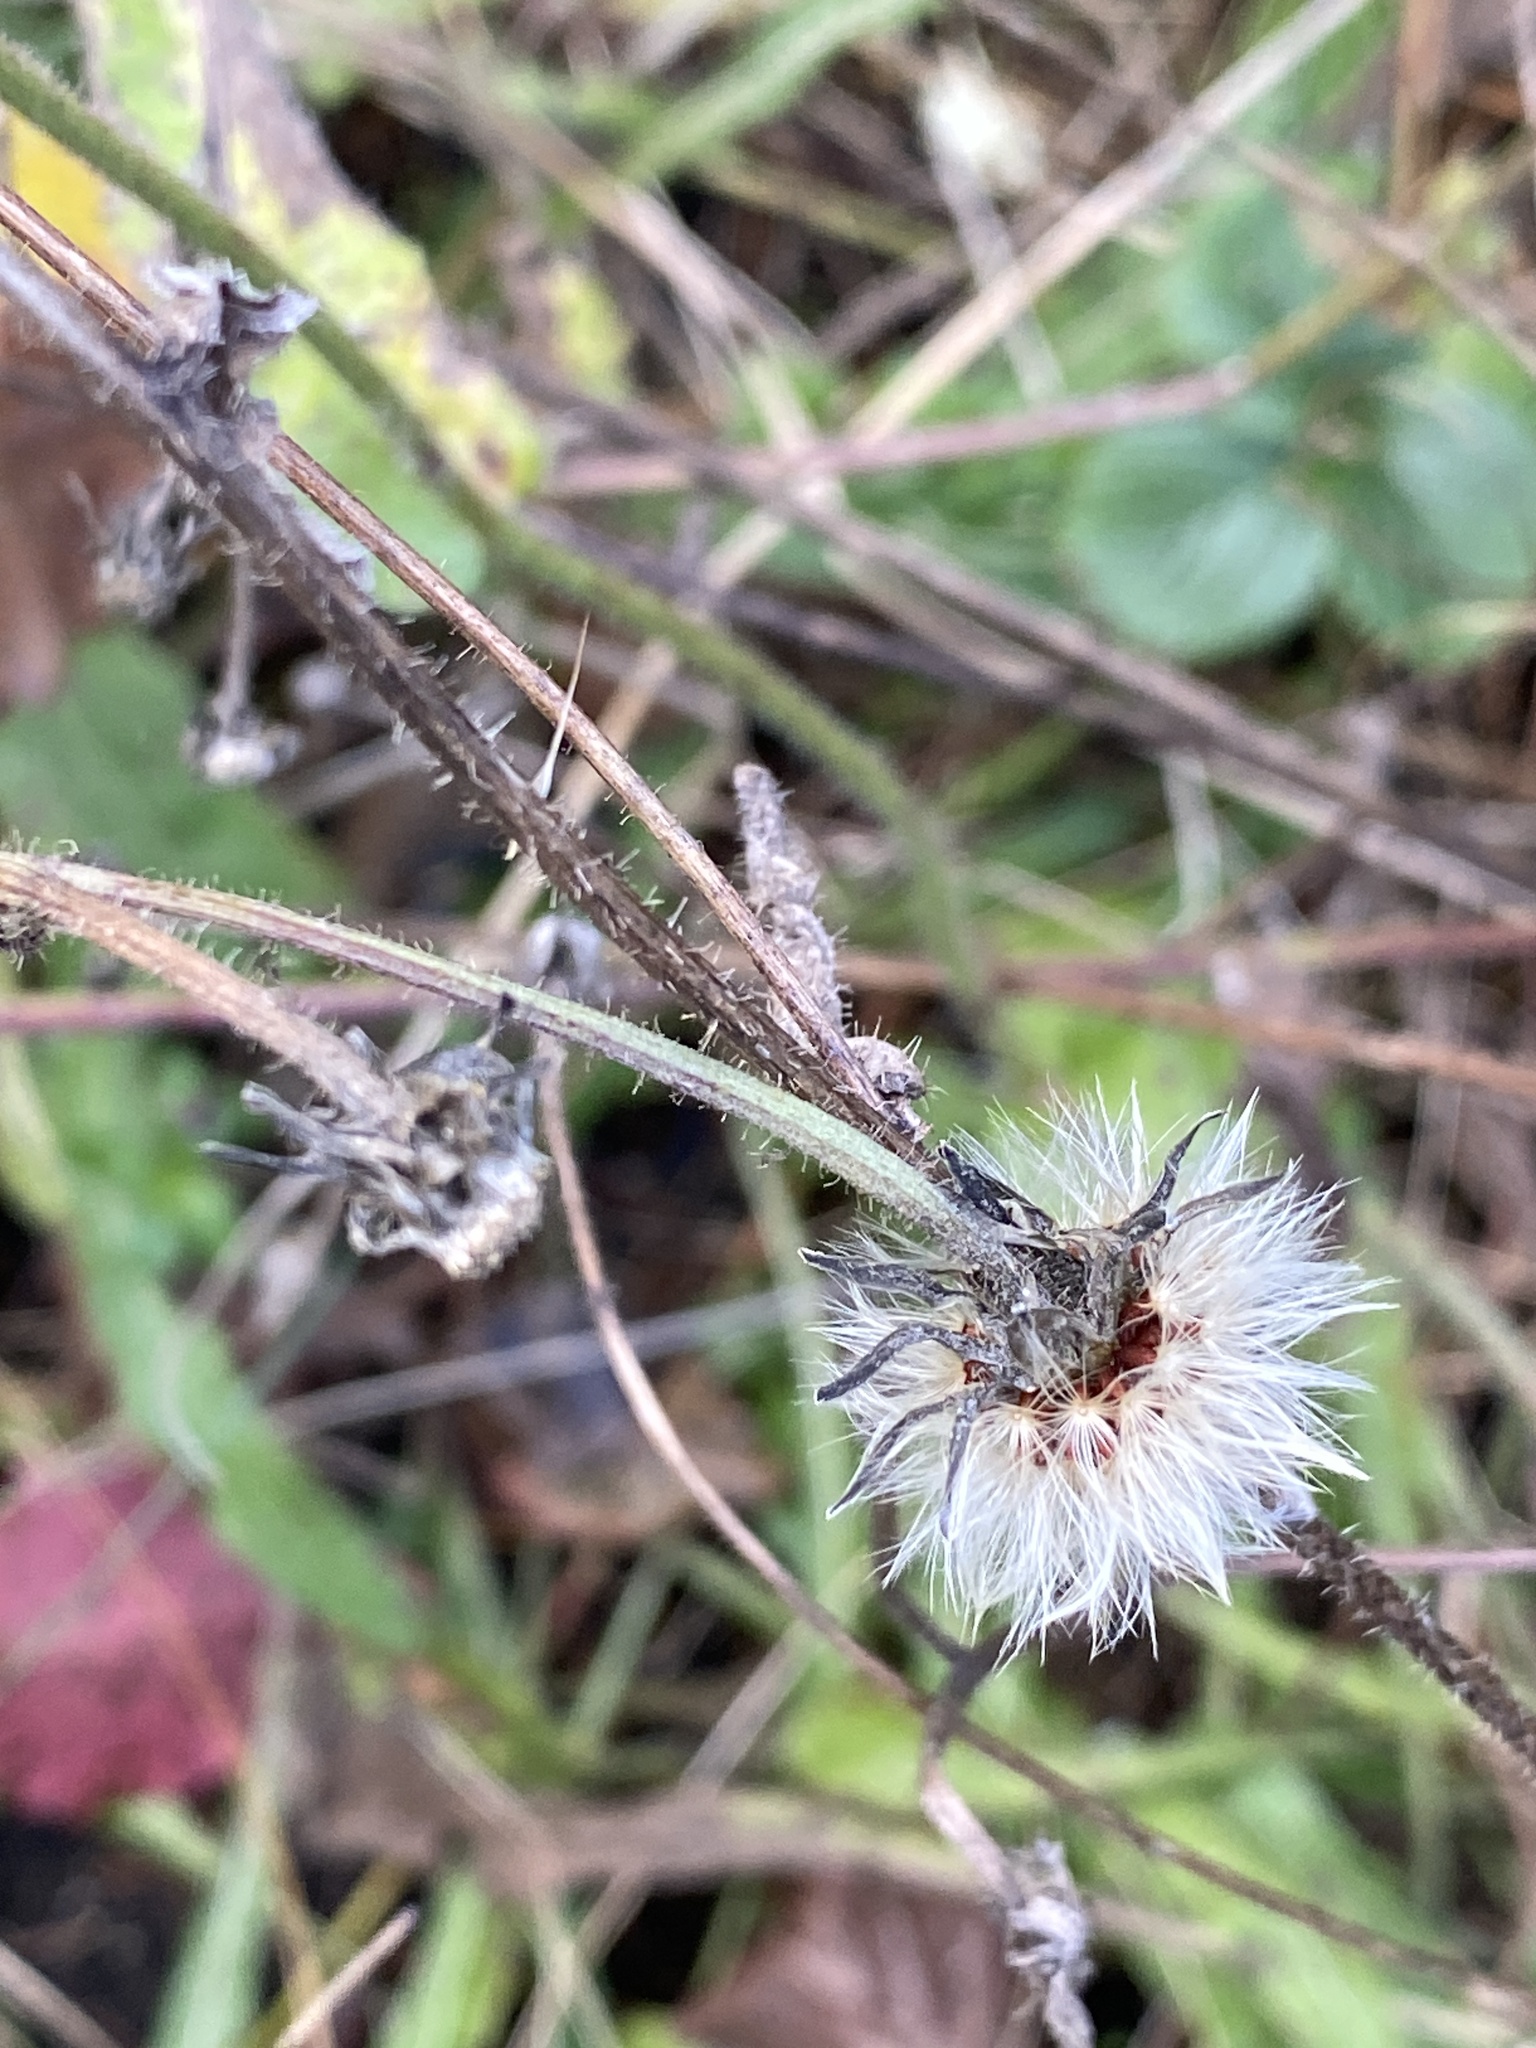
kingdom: Plantae
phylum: Tracheophyta
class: Magnoliopsida
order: Asterales
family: Asteraceae
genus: Picris
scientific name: Picris hieracioides
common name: Hawkweed oxtongue
